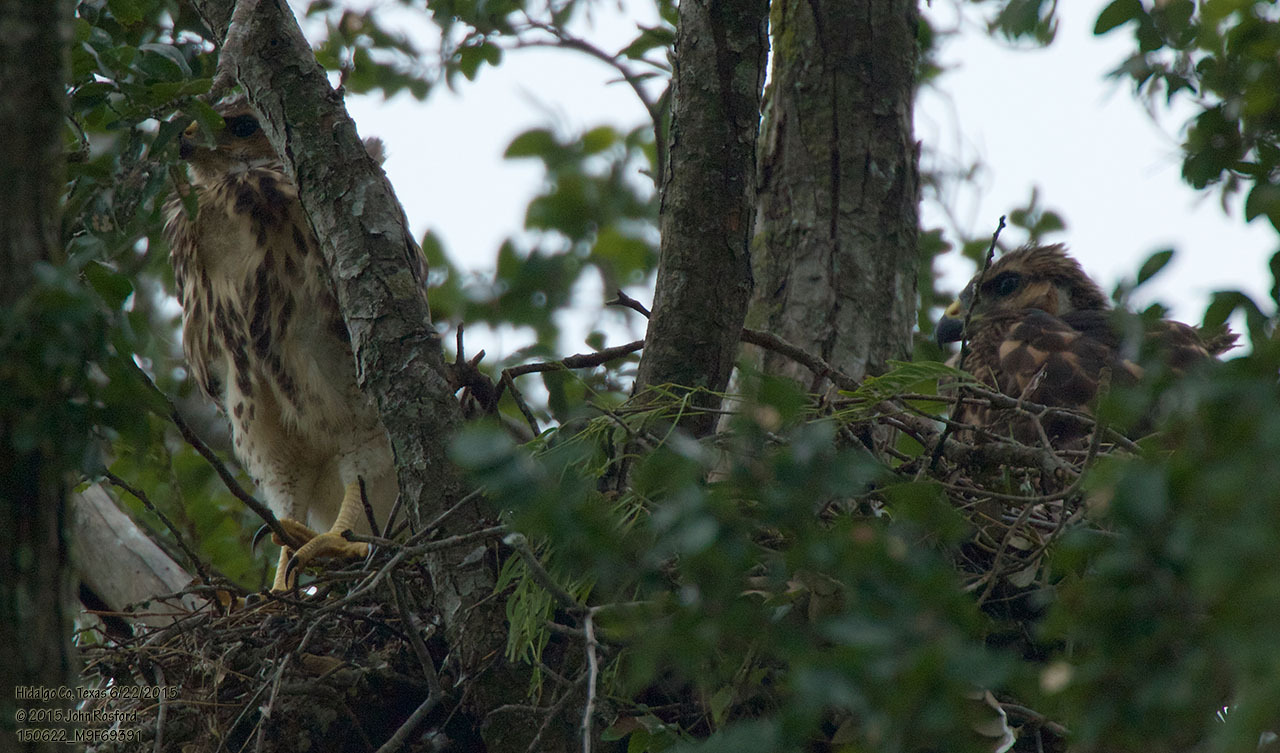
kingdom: Animalia
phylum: Chordata
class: Aves
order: Accipitriformes
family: Accipitridae
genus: Buteo
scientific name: Buteo nitidus
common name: Grey-lined hawk
